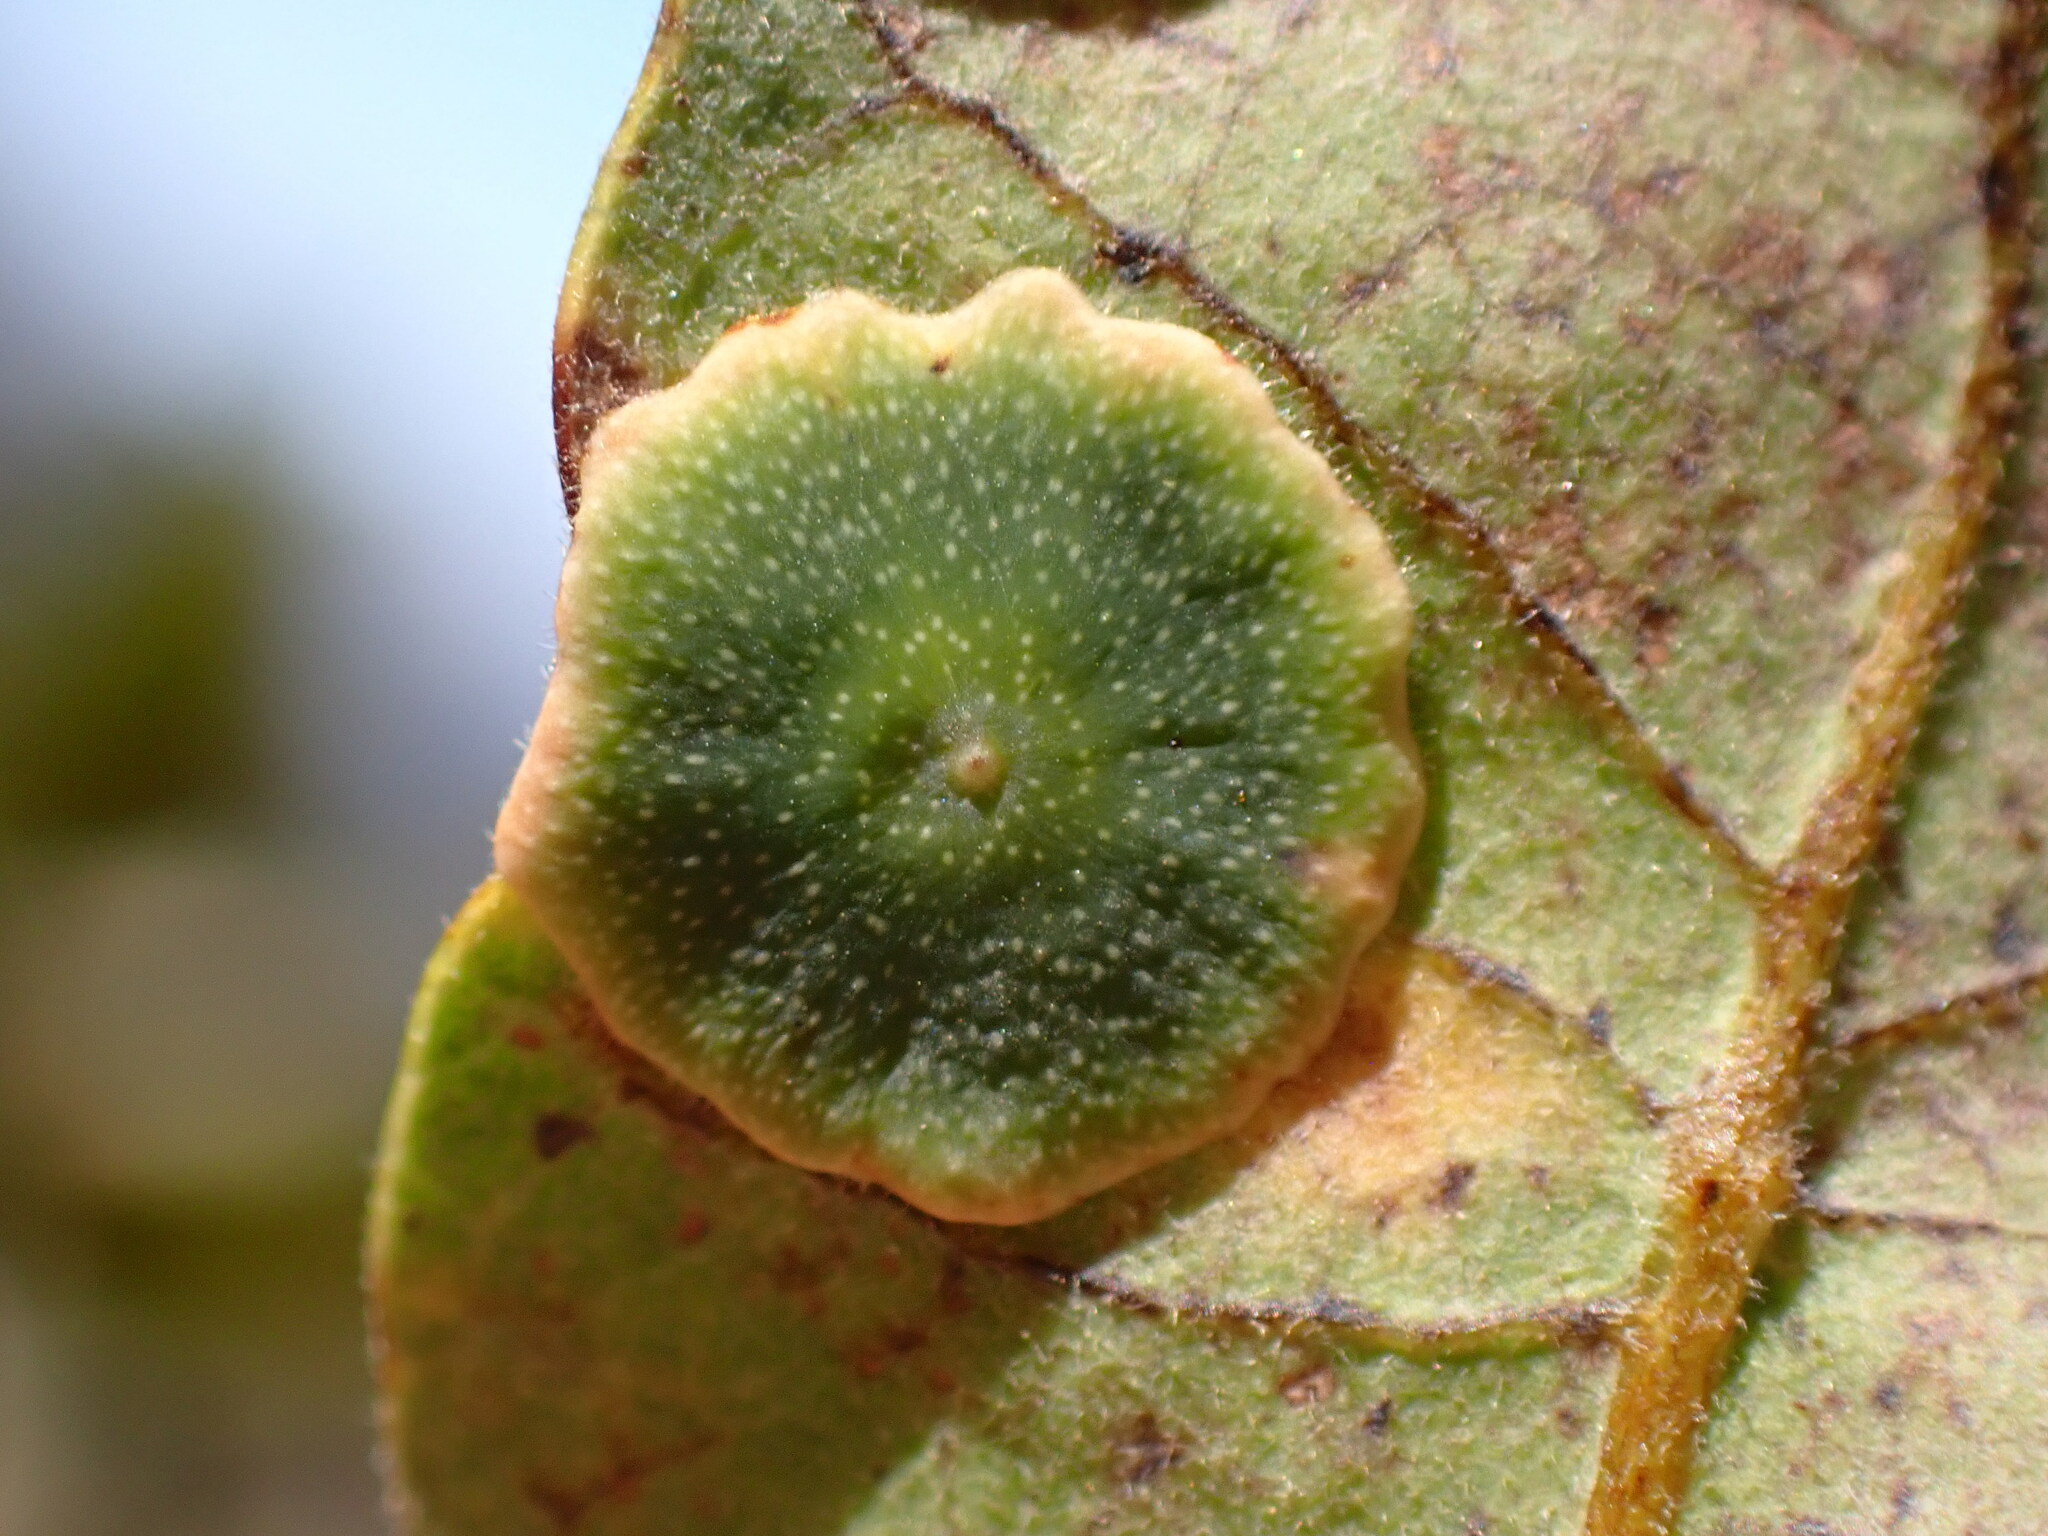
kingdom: Animalia
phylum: Arthropoda
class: Insecta
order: Hymenoptera
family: Cynipidae
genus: Andricus
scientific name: Andricus
